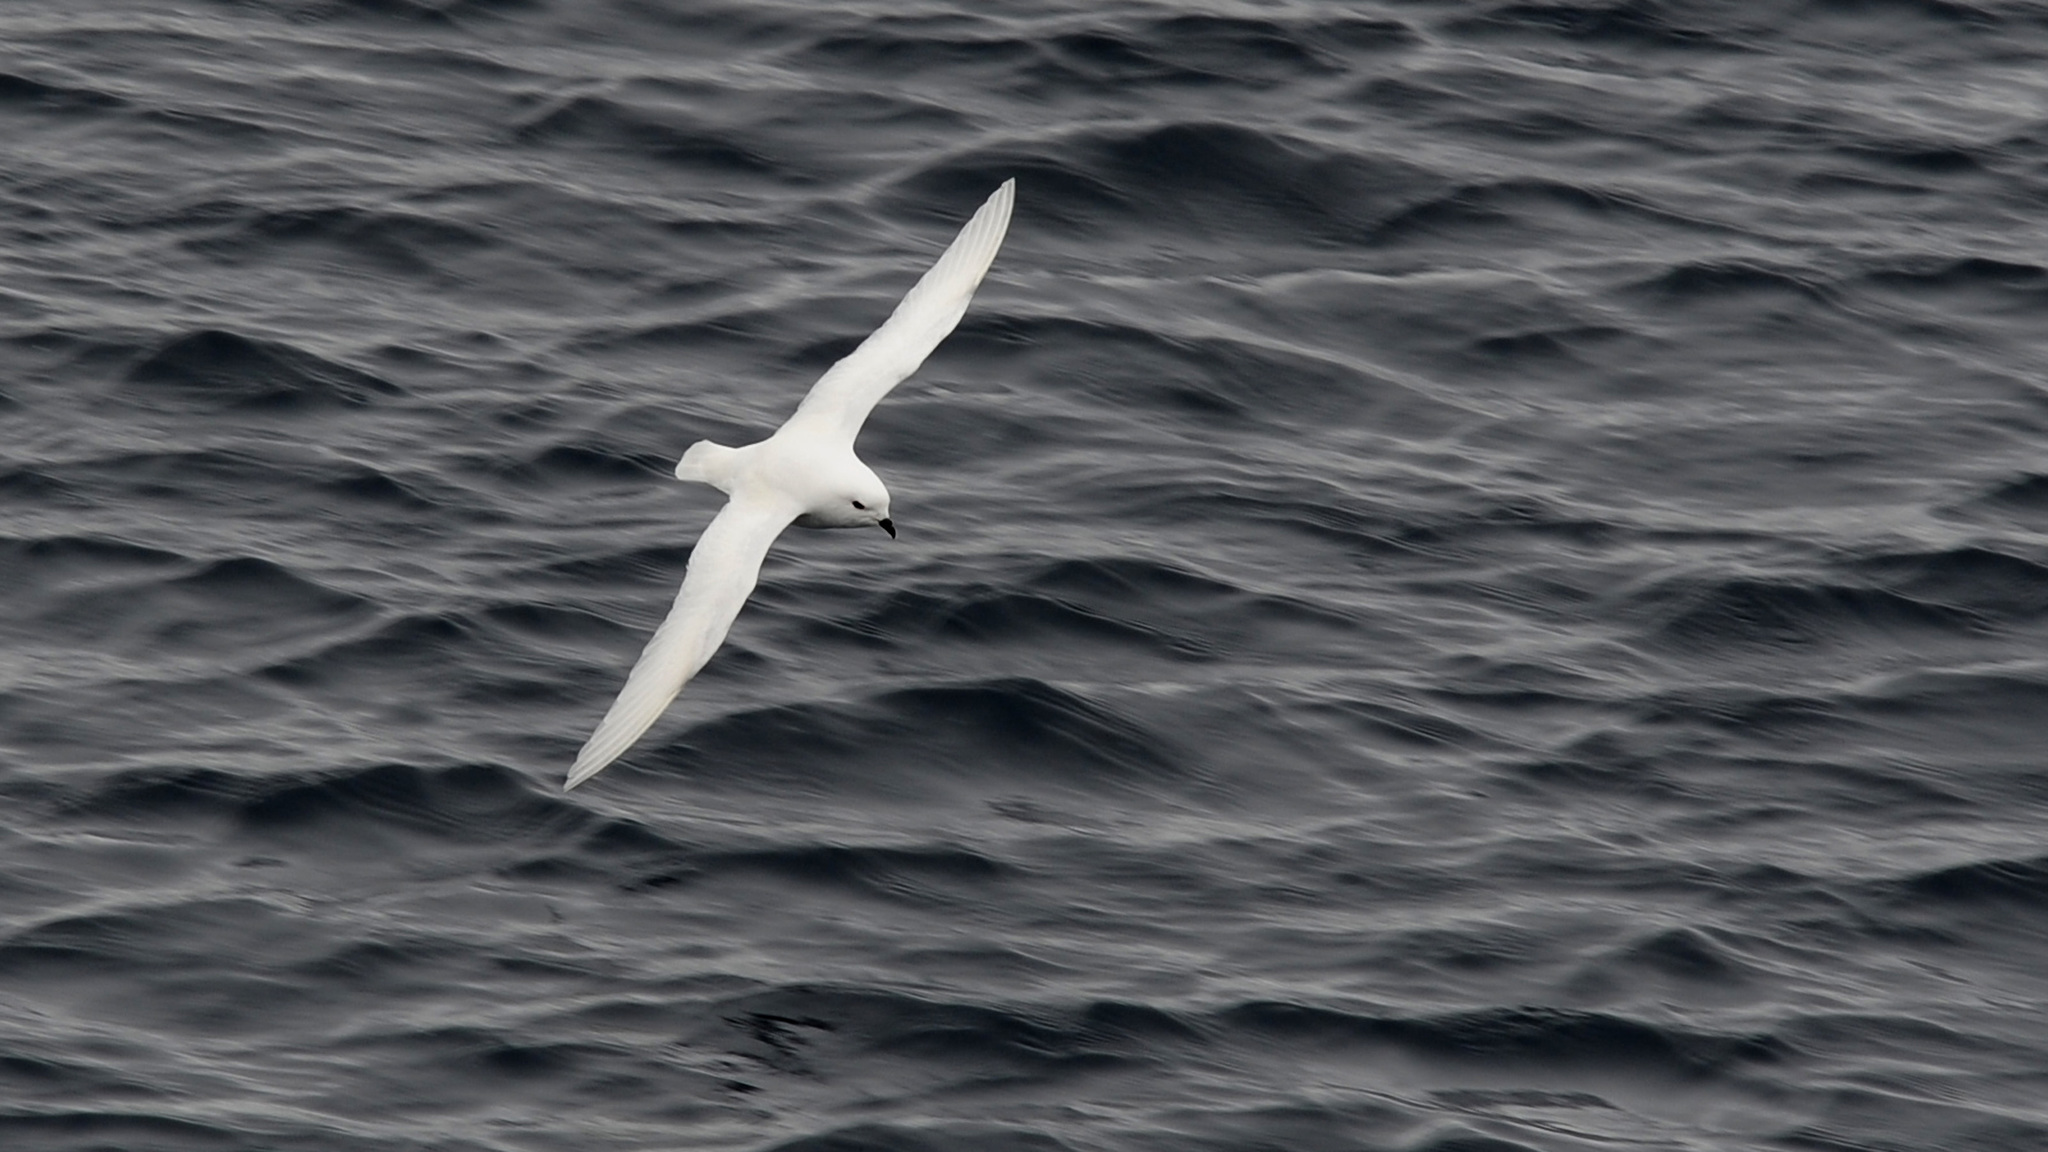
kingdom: Animalia
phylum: Chordata
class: Aves
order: Procellariiformes
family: Procellariidae
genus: Pagodroma
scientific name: Pagodroma nivea
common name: Snow petrel
